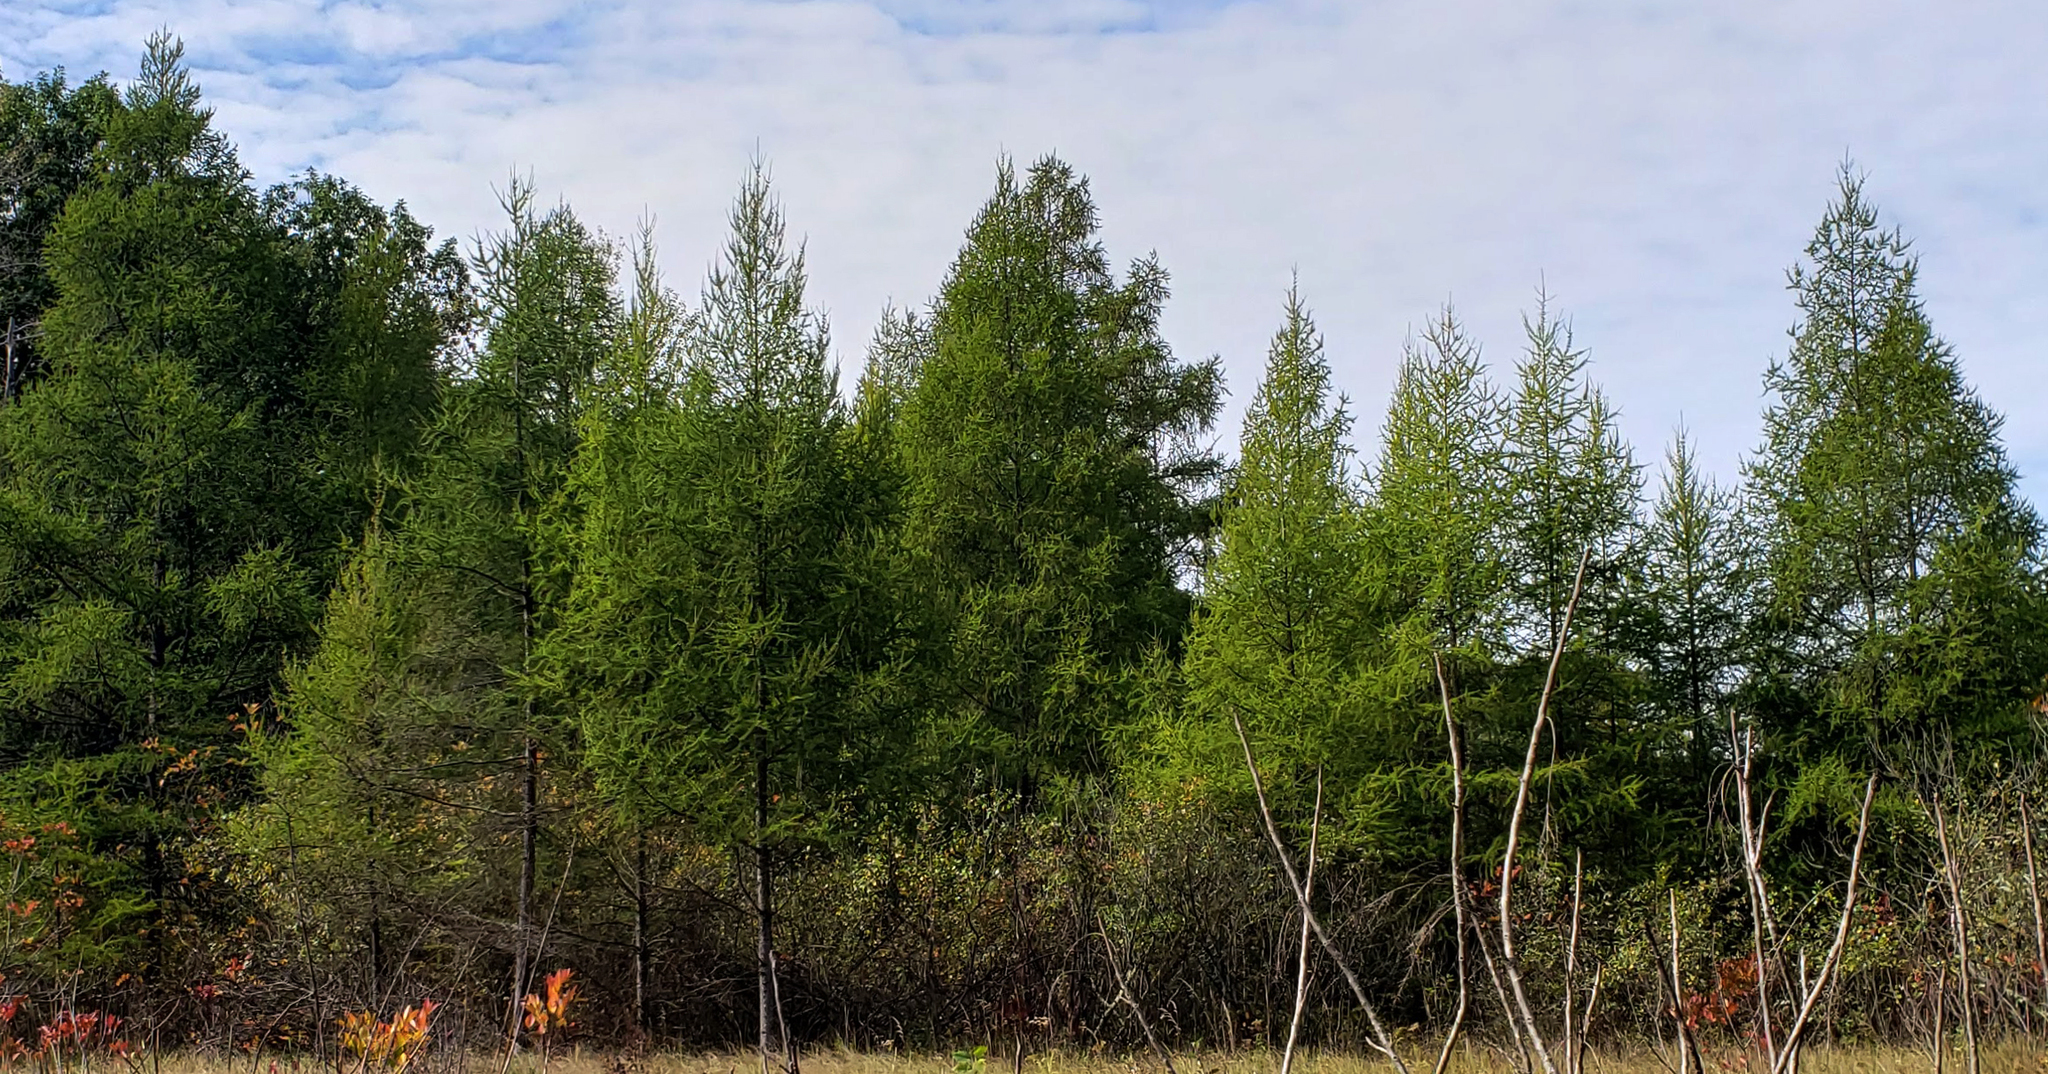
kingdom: Plantae
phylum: Tracheophyta
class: Pinopsida
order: Pinales
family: Pinaceae
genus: Larix
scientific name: Larix laricina
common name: American larch
